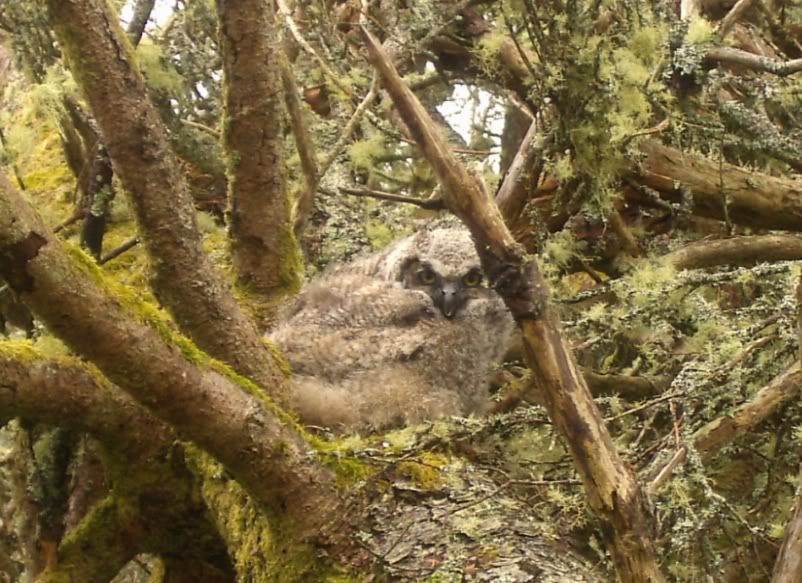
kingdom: Animalia
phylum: Chordata
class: Aves
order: Strigiformes
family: Strigidae
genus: Bubo
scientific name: Bubo virginianus
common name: Great horned owl
